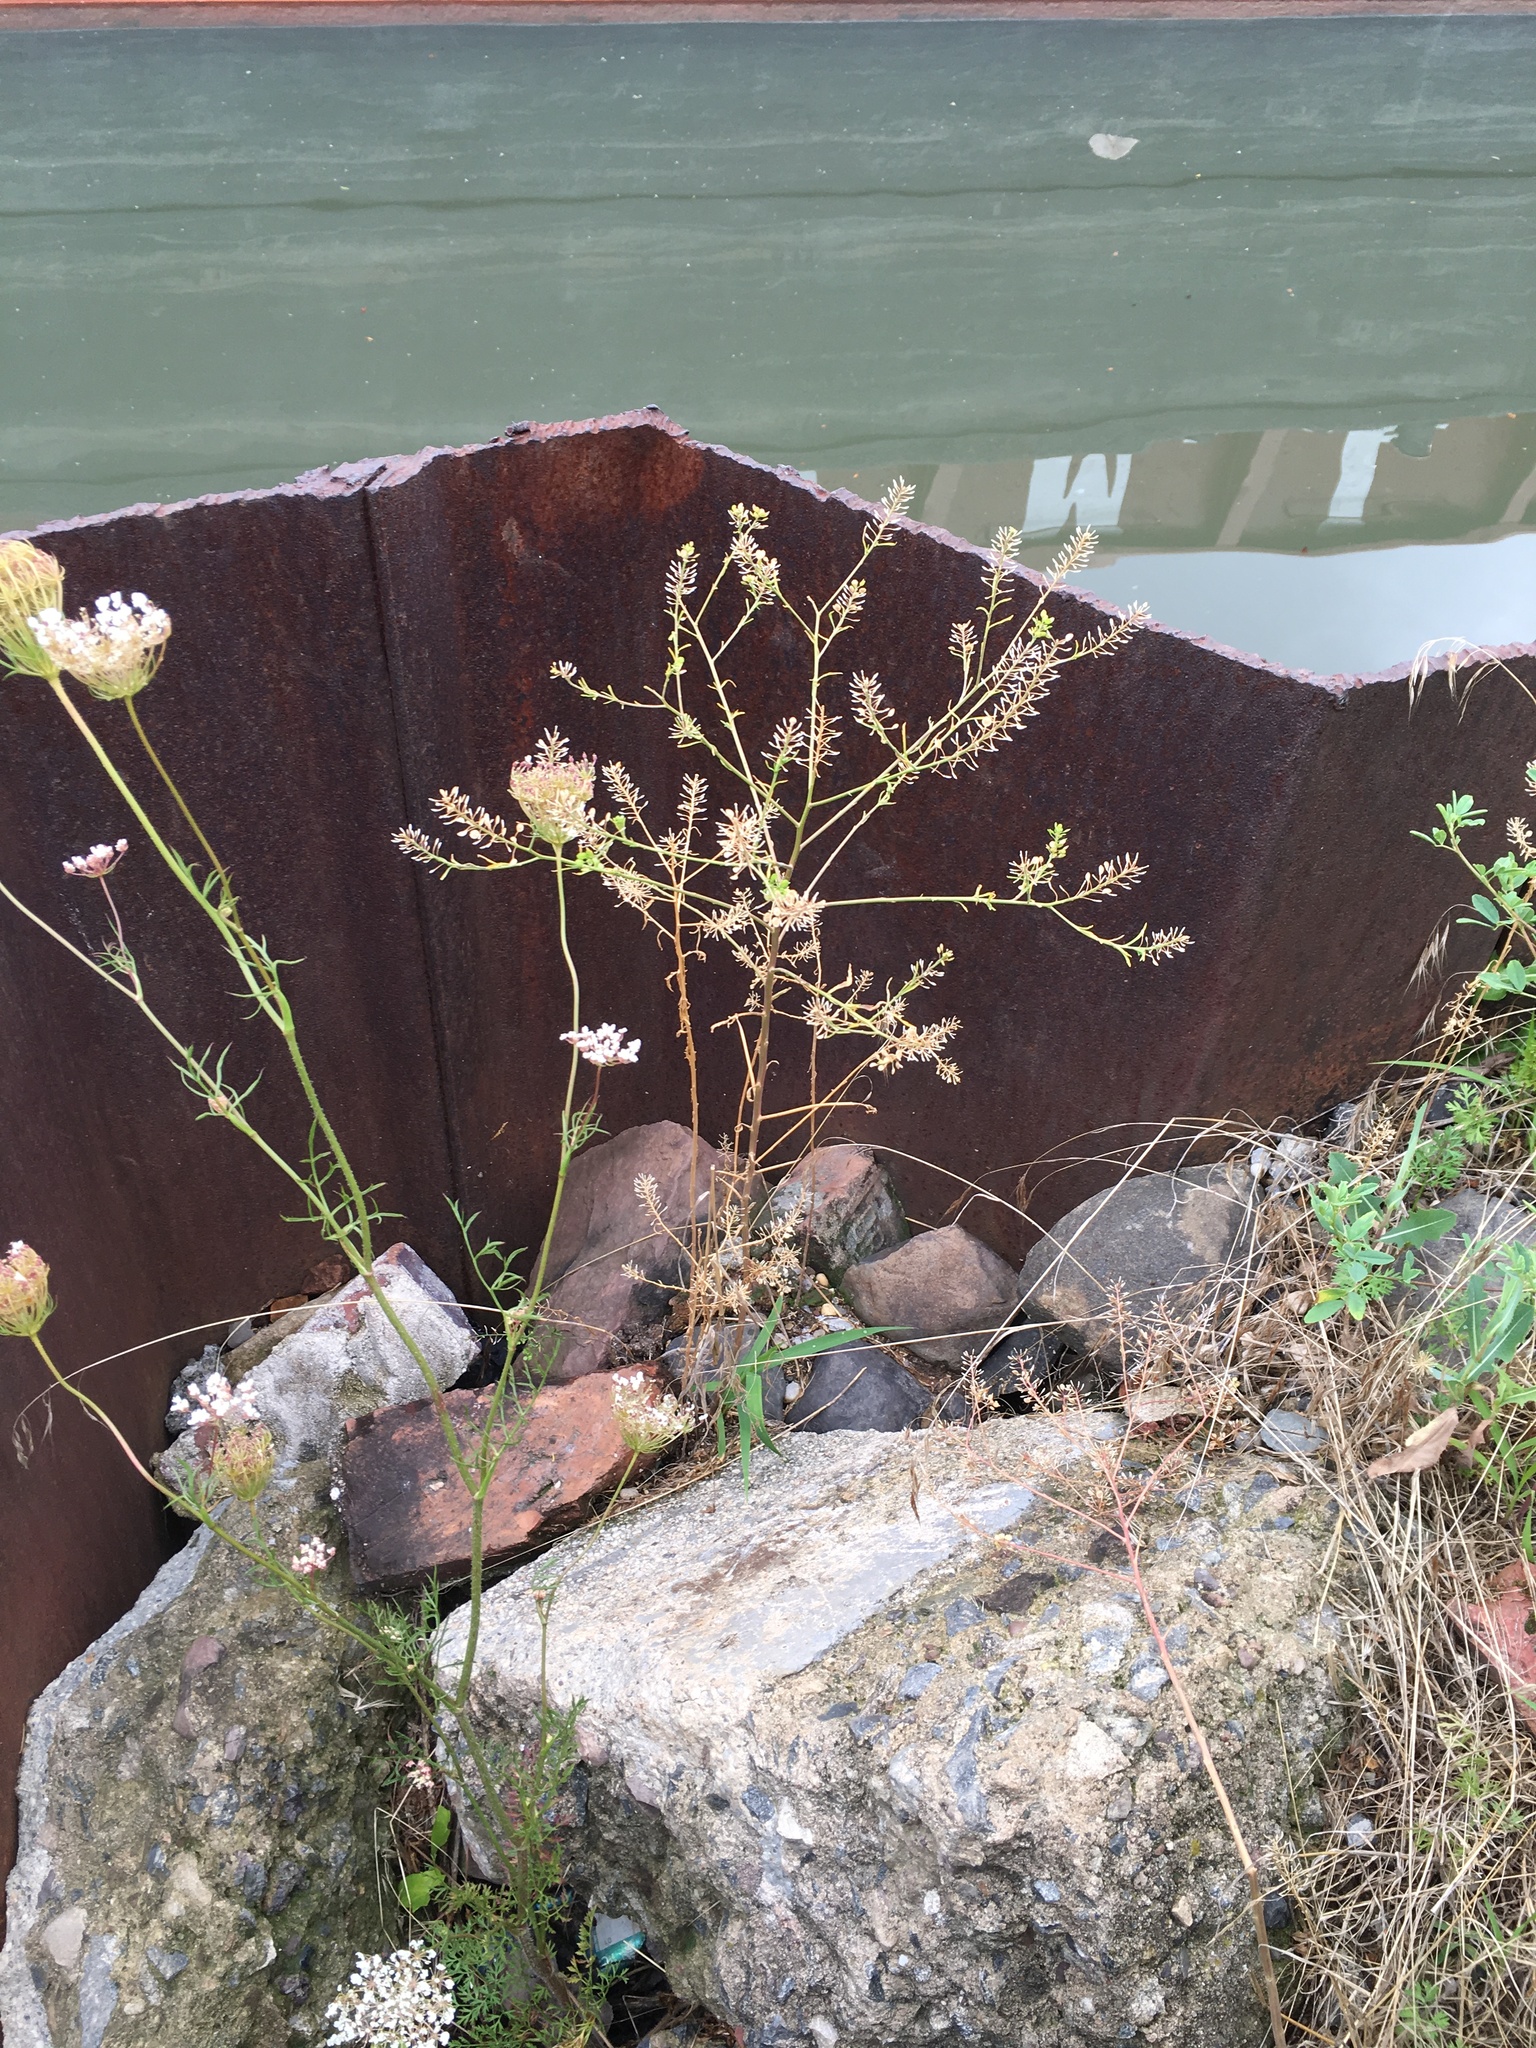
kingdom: Plantae
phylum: Tracheophyta
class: Magnoliopsida
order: Brassicales
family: Brassicaceae
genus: Lepidium
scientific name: Lepidium virginicum
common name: Least pepperwort
